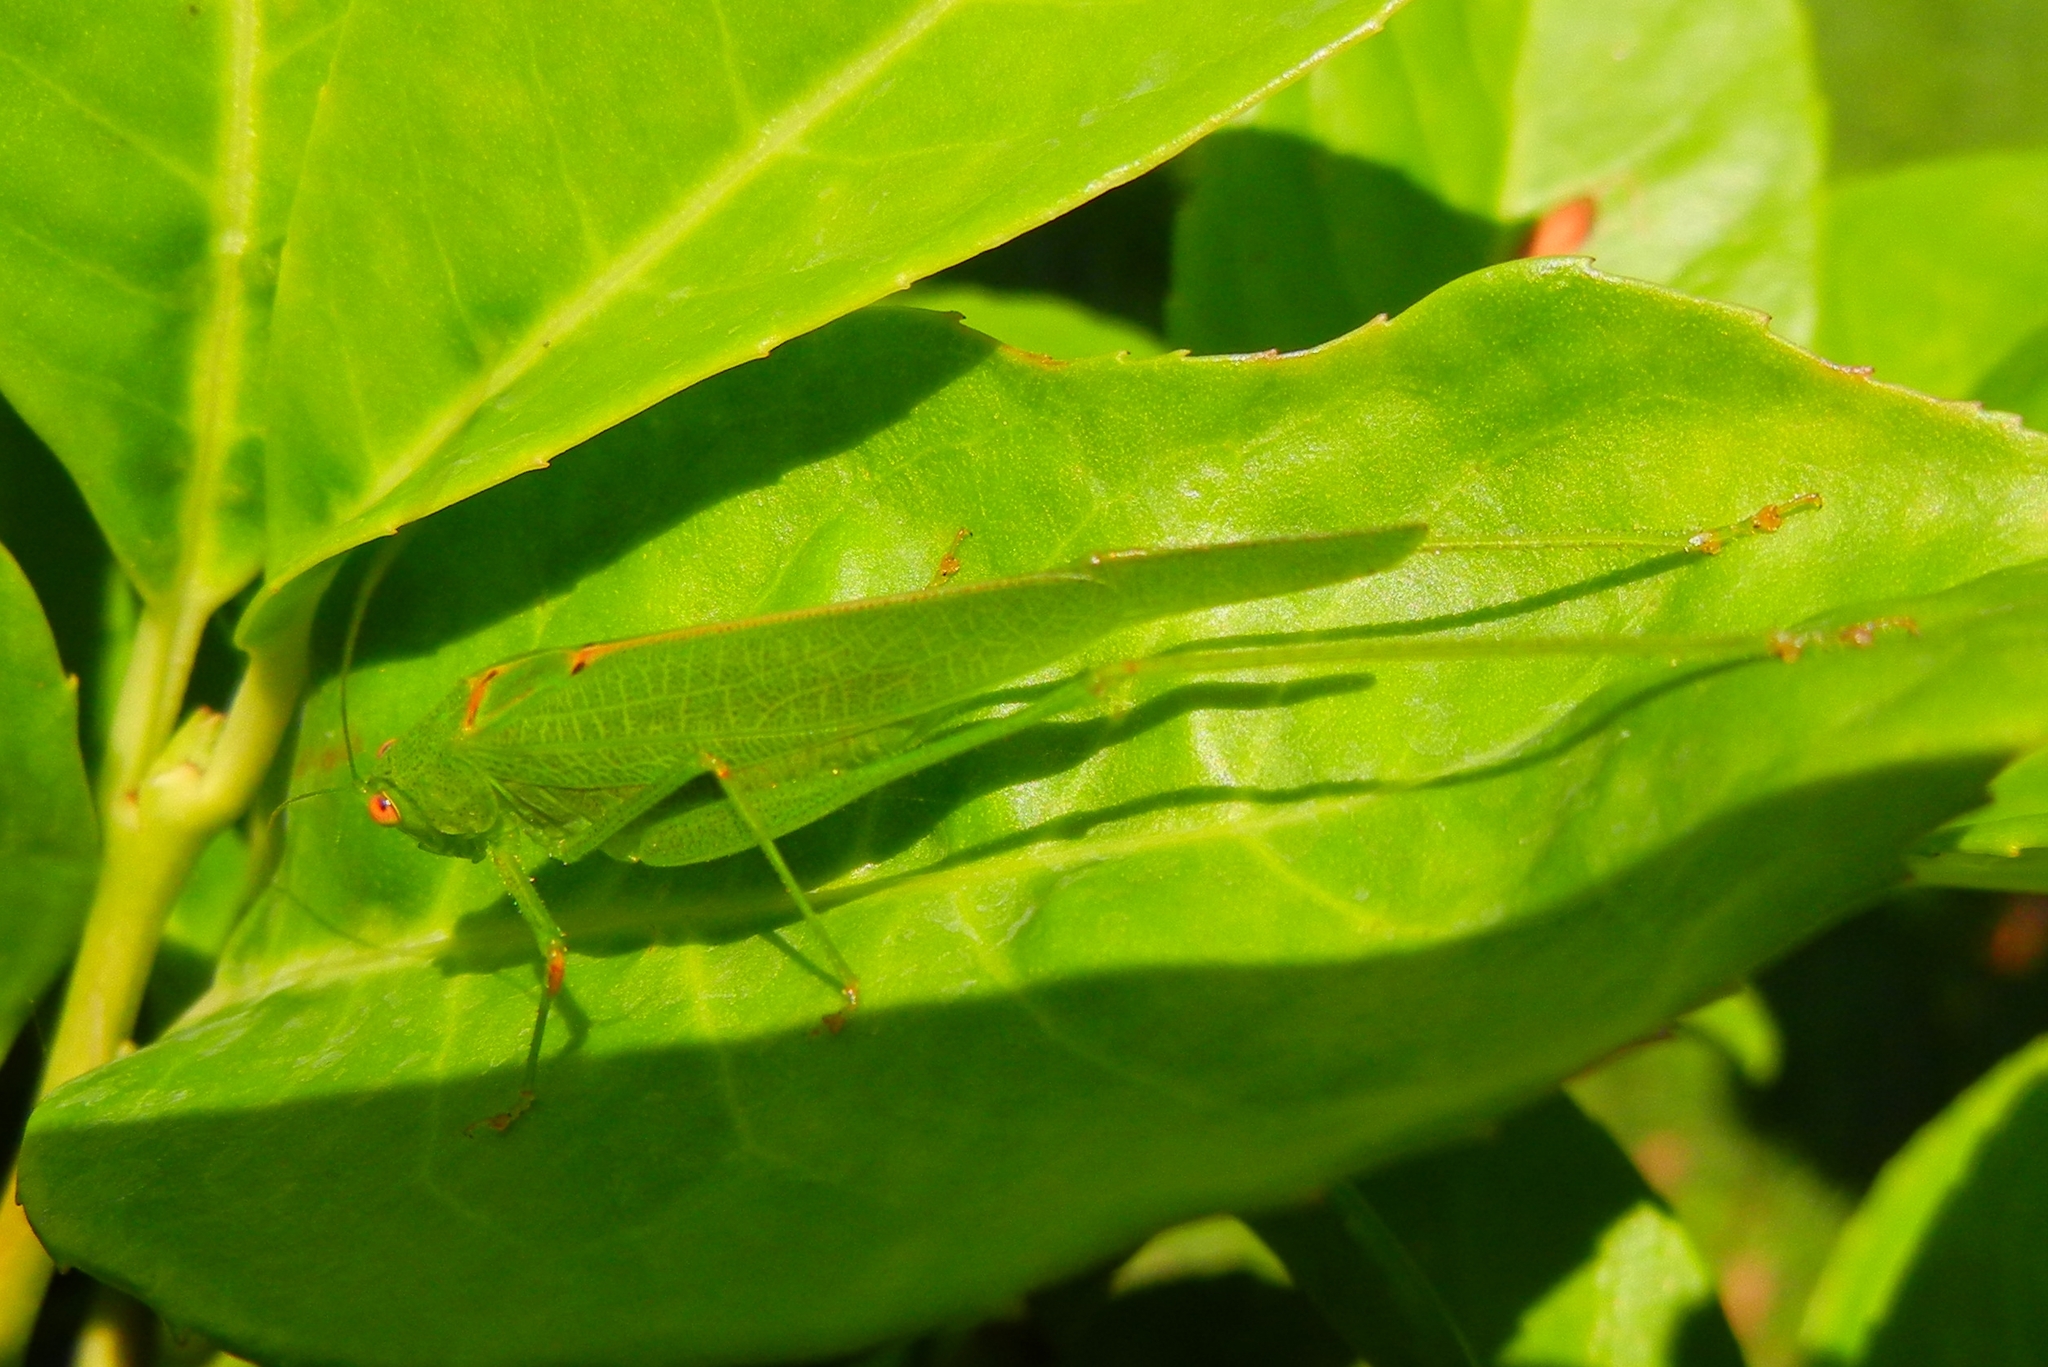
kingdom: Animalia
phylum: Arthropoda
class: Insecta
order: Orthoptera
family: Tettigoniidae
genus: Phaneroptera
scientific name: Phaneroptera nana
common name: Southern sickle bush-cricket
